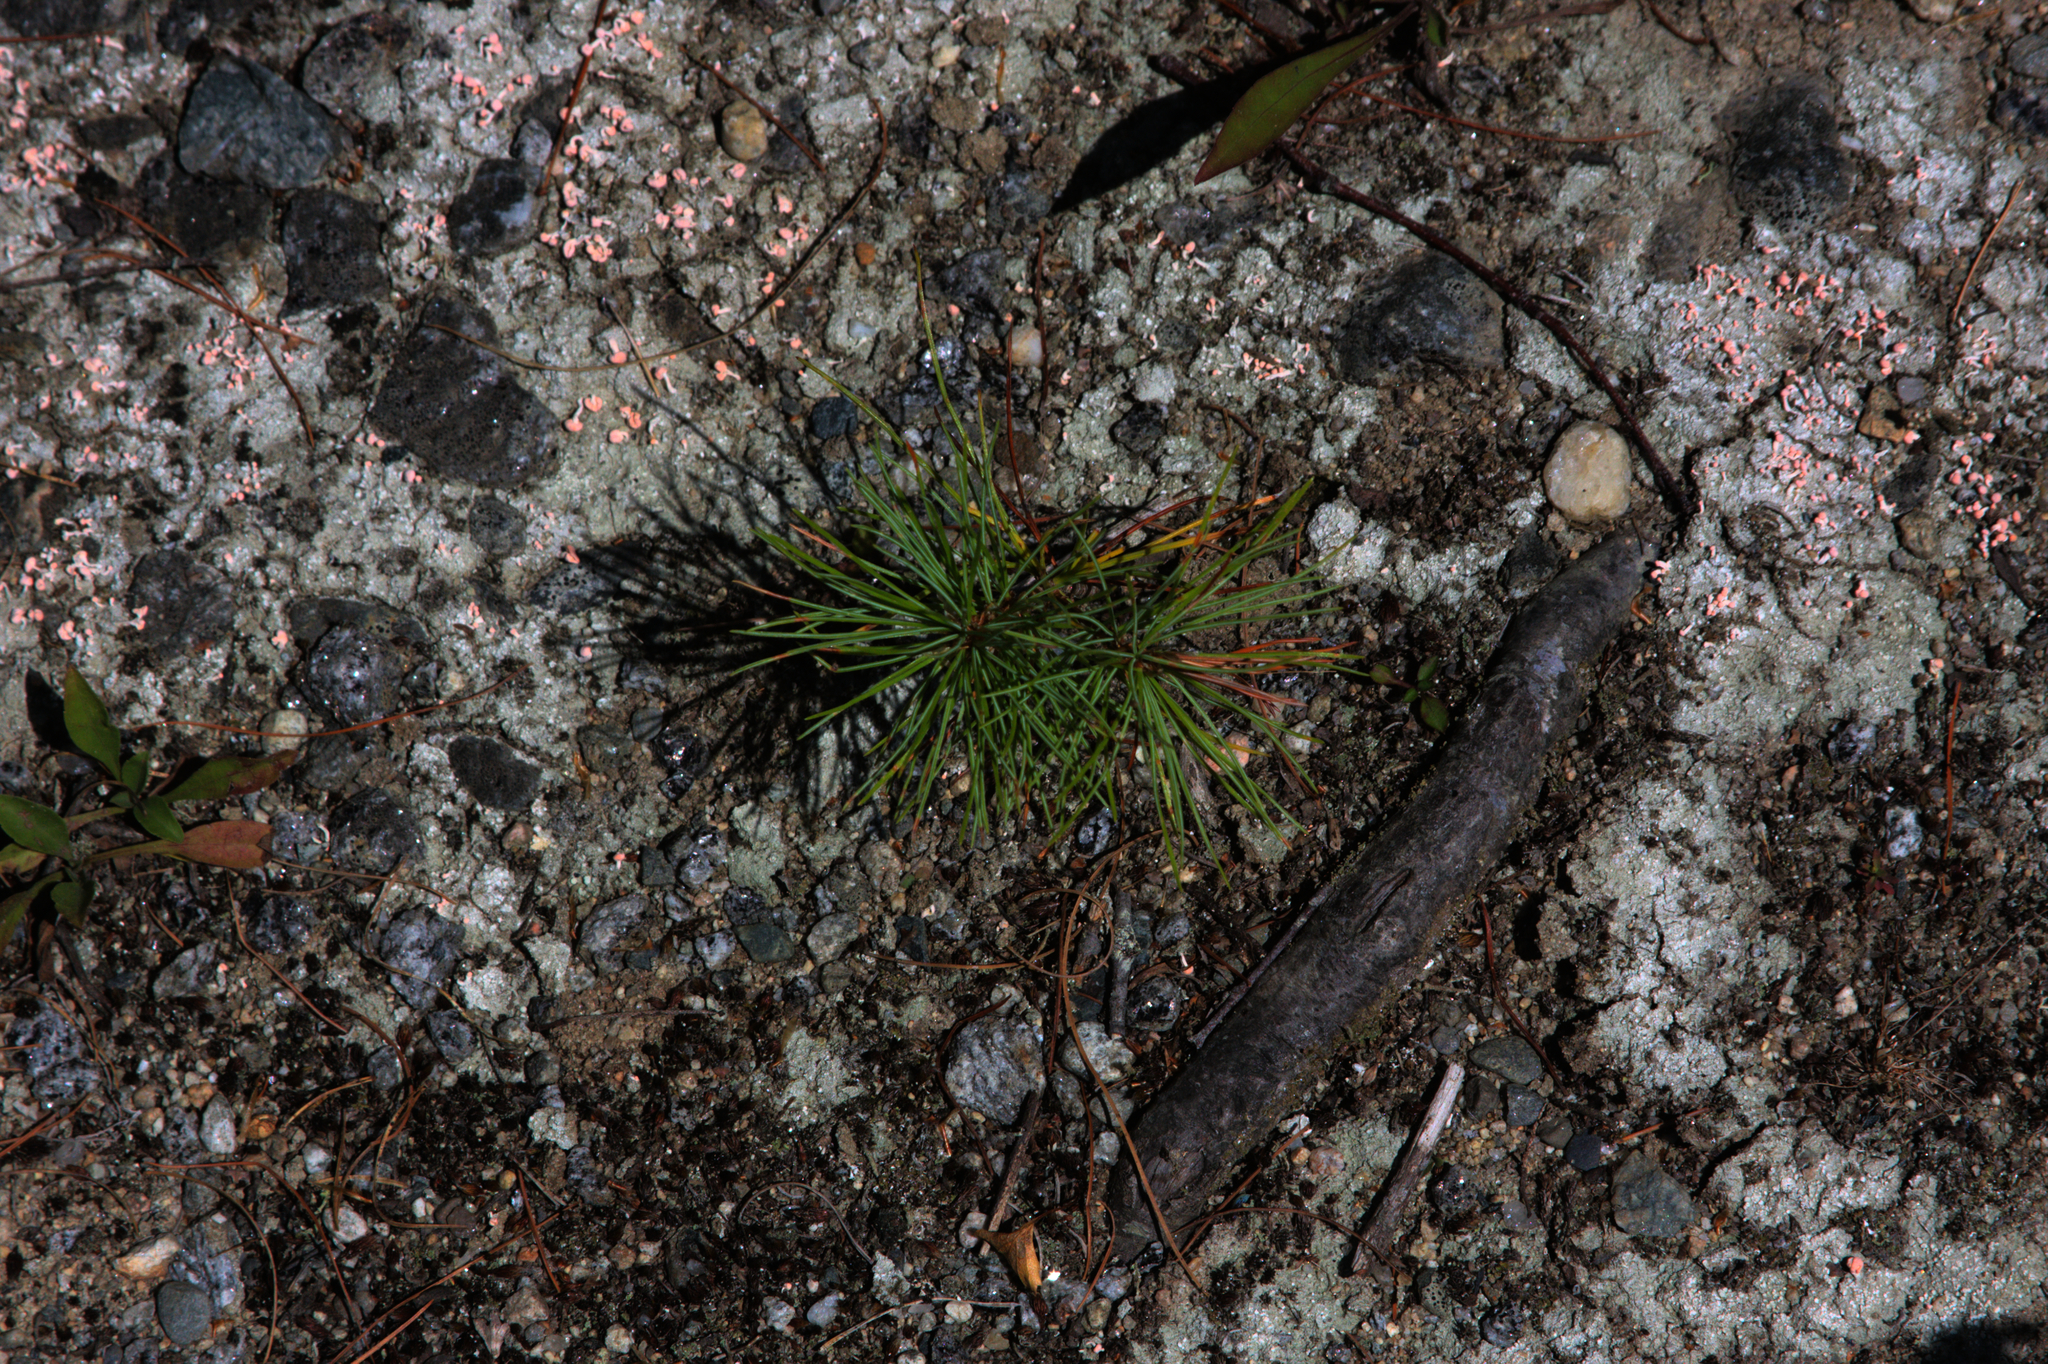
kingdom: Plantae
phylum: Tracheophyta
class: Pinopsida
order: Pinales
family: Pinaceae
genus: Pinus
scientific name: Pinus strobus
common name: Weymouth pine
